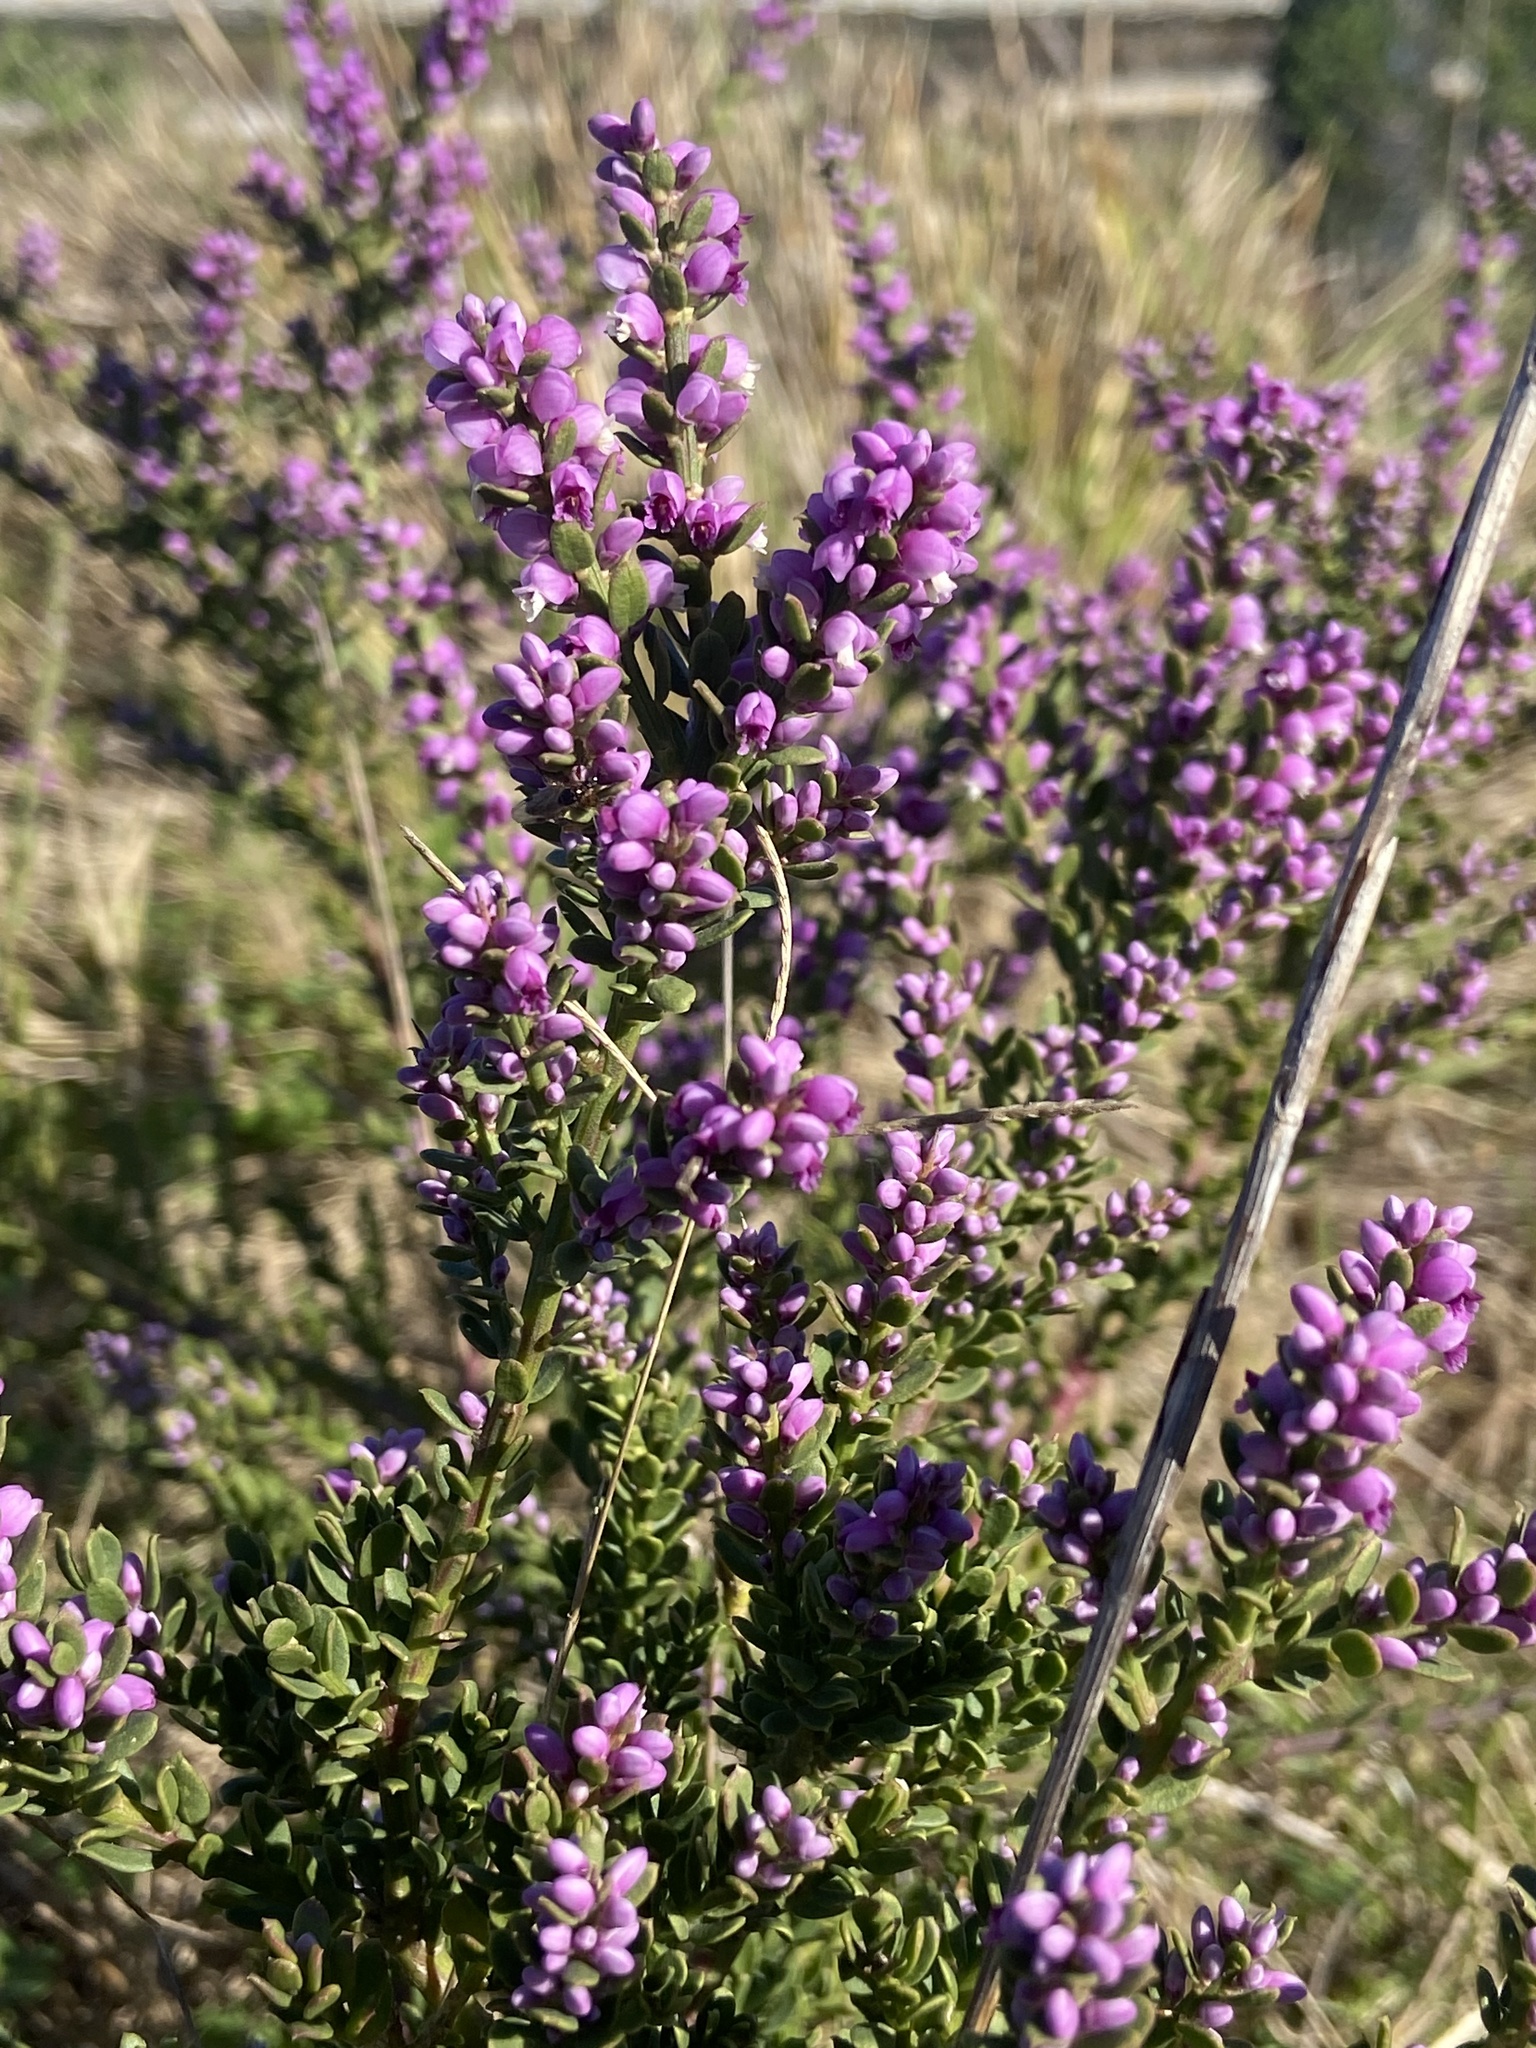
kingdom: Plantae
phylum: Tracheophyta
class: Magnoliopsida
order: Fabales
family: Polygalaceae
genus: Muraltia
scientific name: Muraltia spinosa
